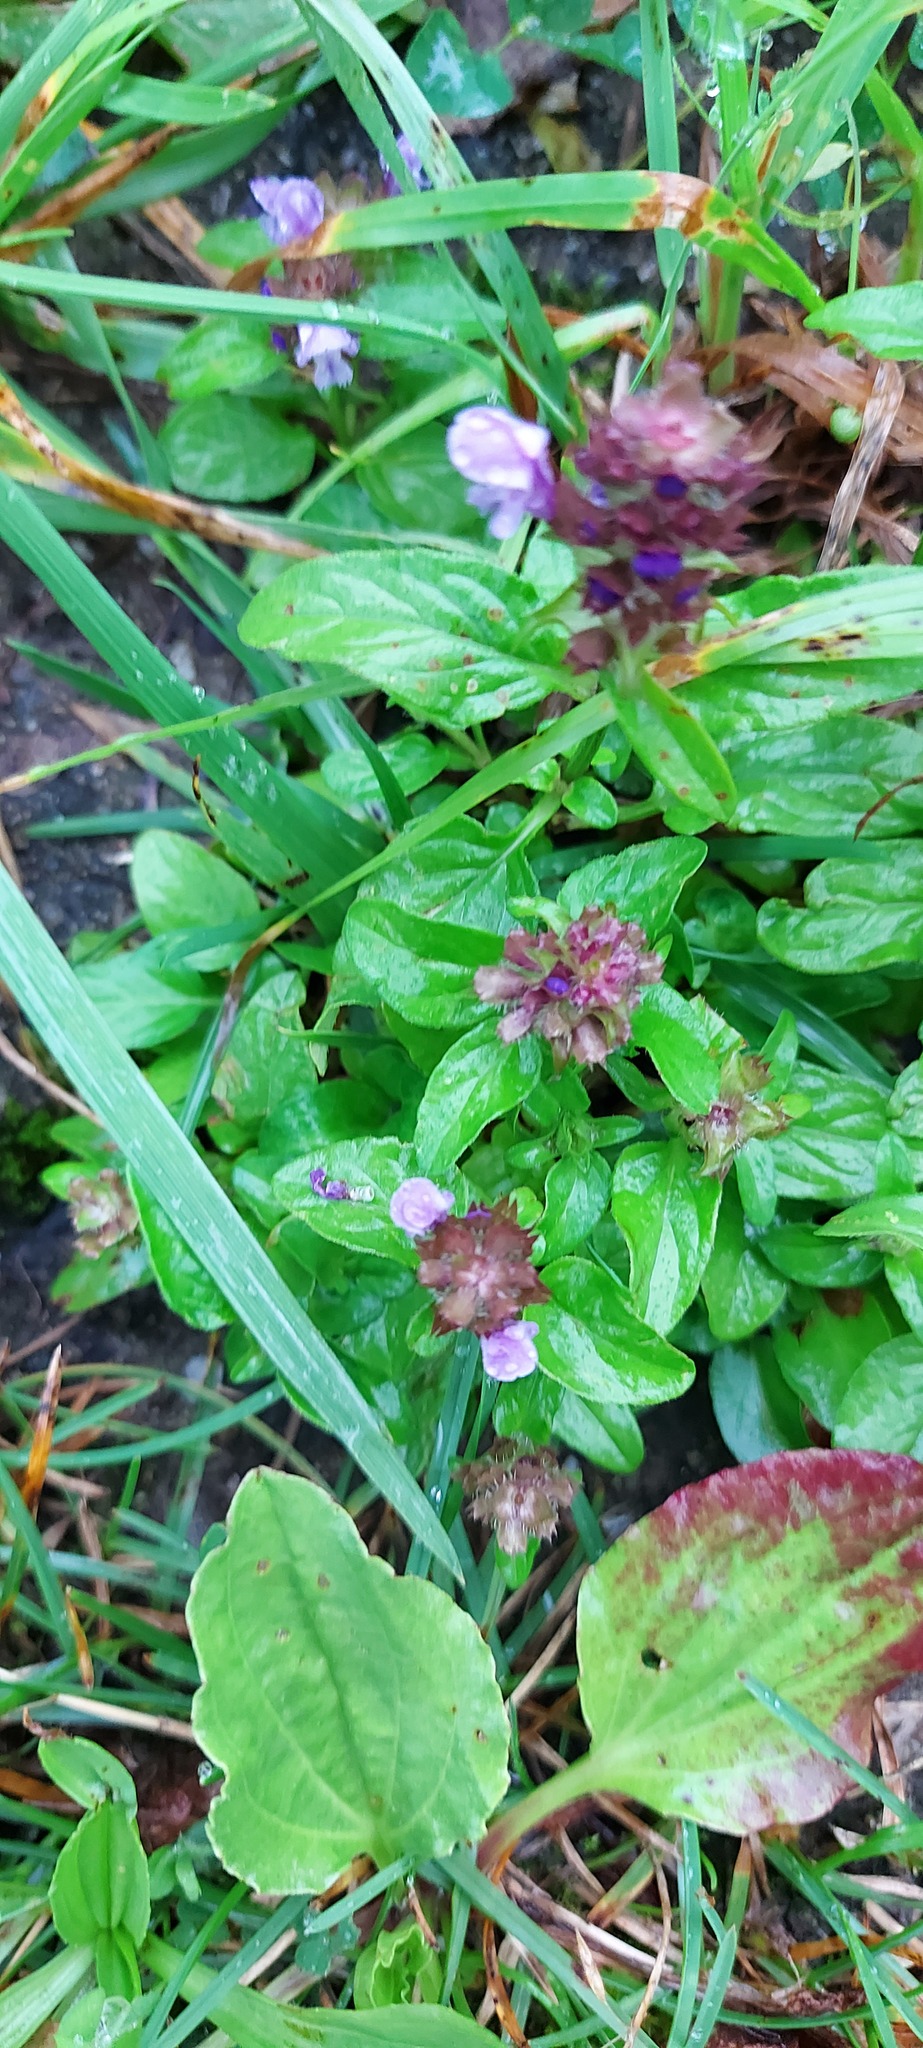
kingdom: Plantae
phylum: Tracheophyta
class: Magnoliopsida
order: Lamiales
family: Lamiaceae
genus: Prunella
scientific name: Prunella vulgaris
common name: Heal-all
